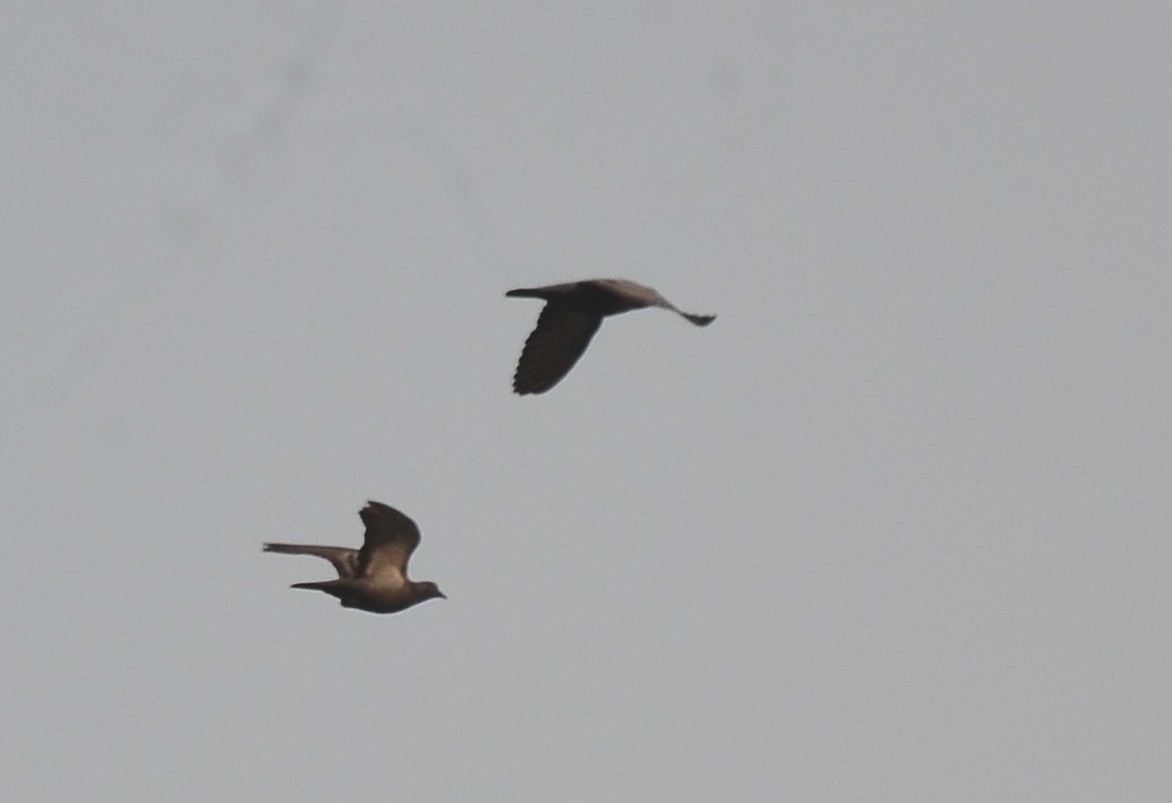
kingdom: Animalia
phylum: Chordata
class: Aves
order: Columbiformes
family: Columbidae
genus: Columba
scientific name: Columba livia
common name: Rock pigeon
